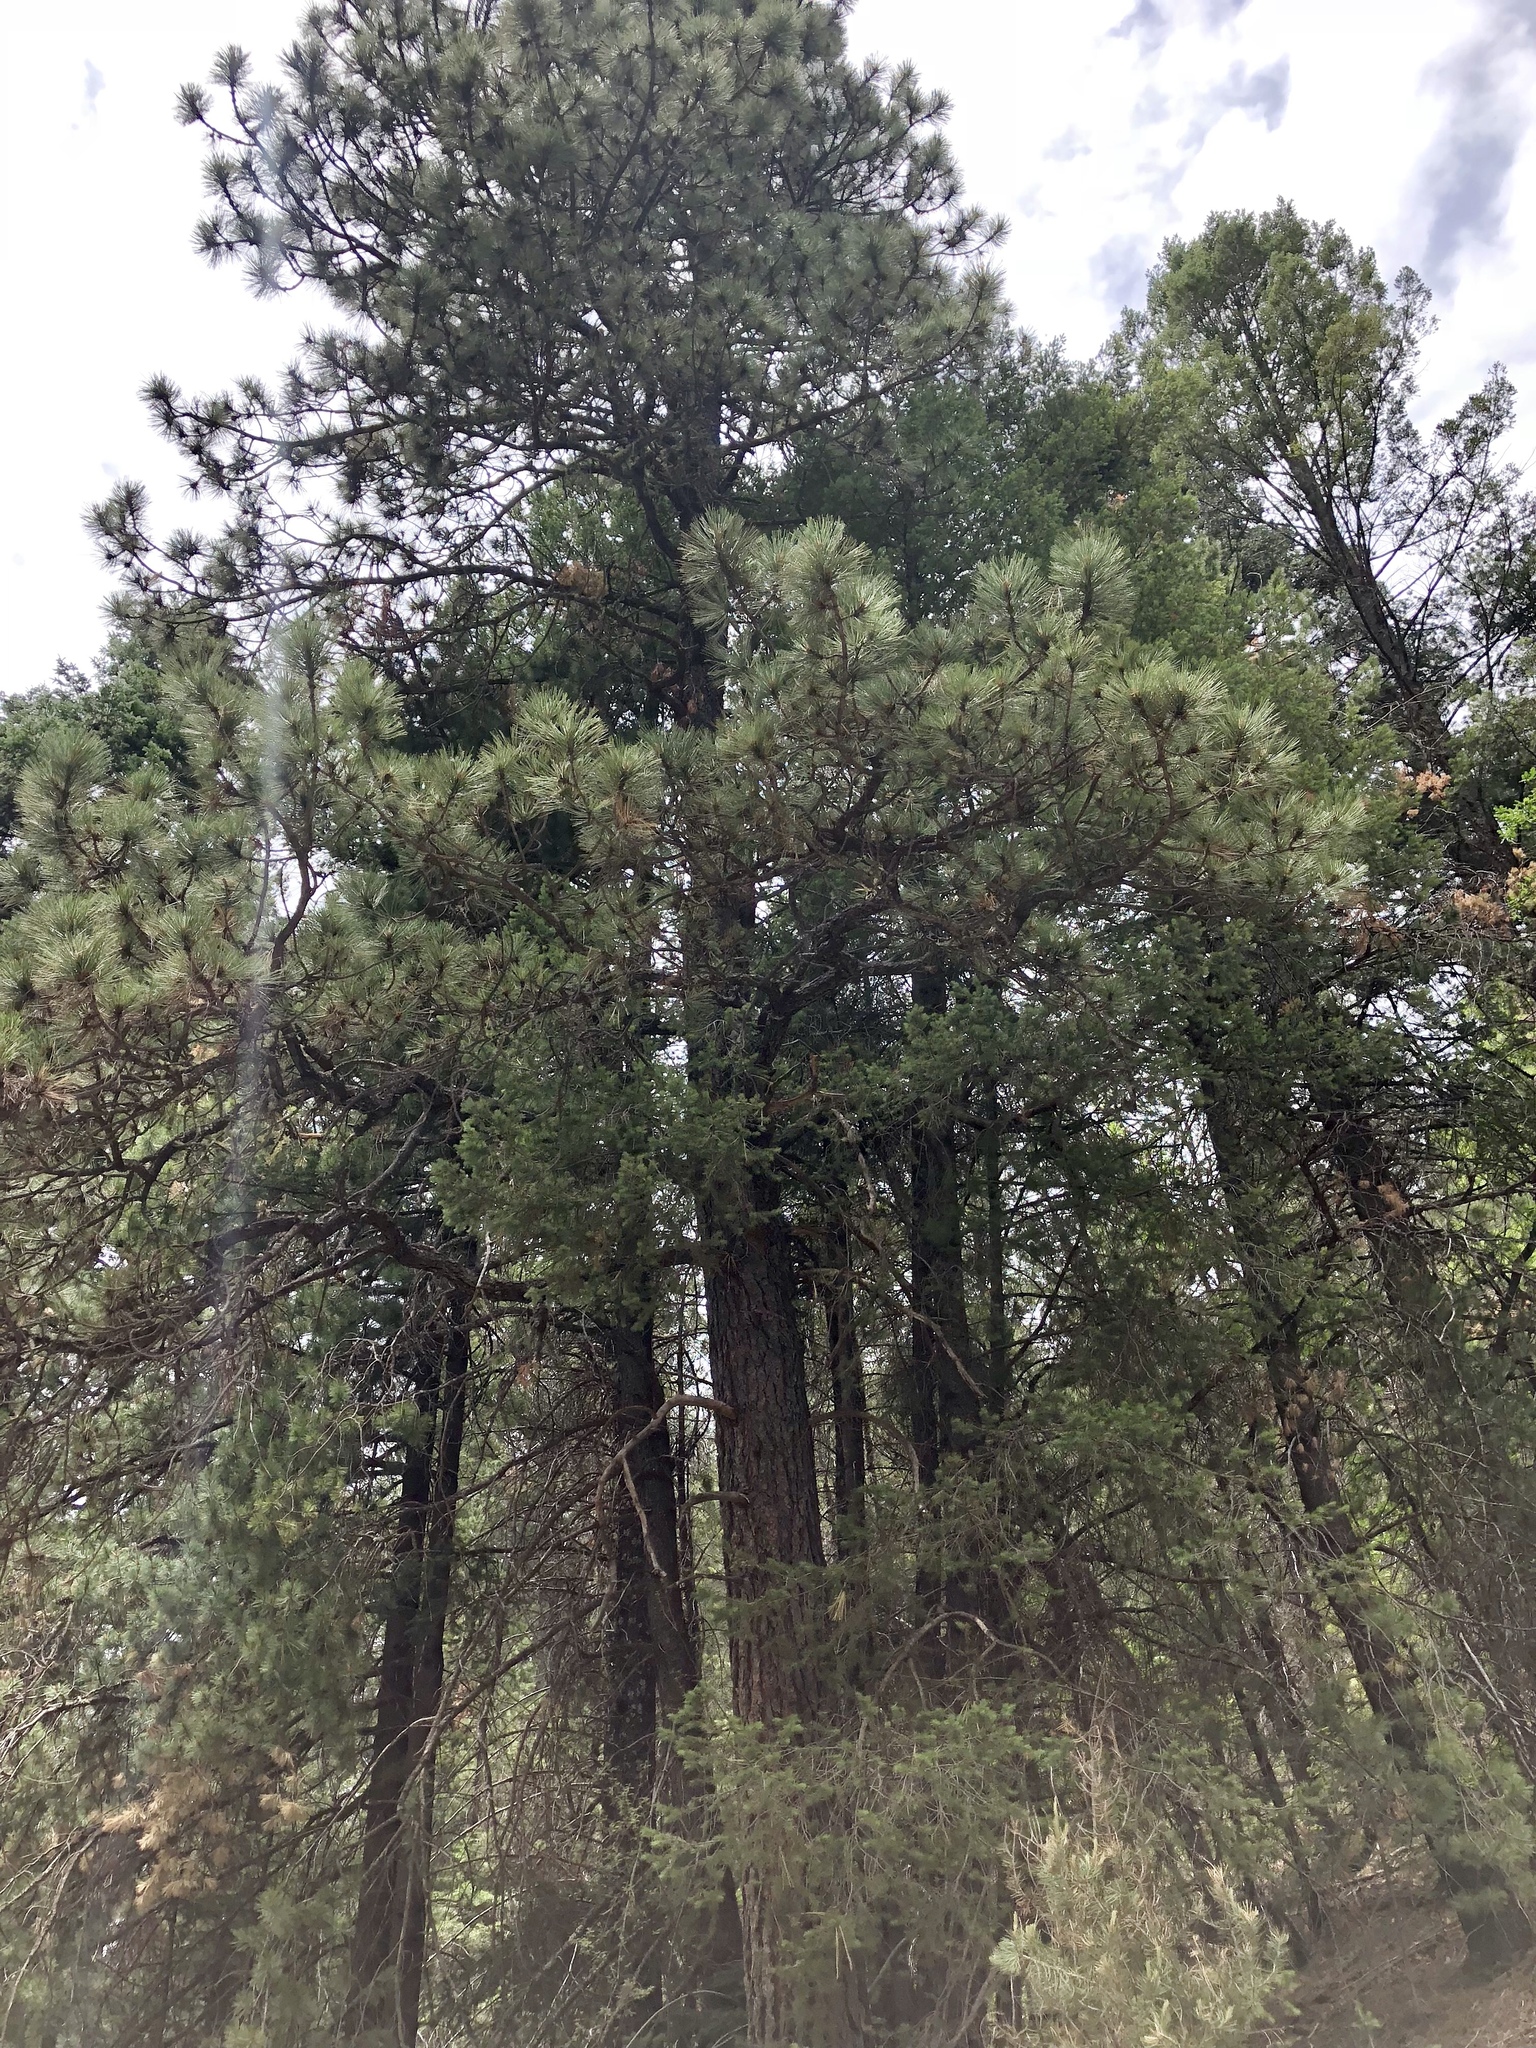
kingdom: Plantae
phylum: Tracheophyta
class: Pinopsida
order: Pinales
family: Pinaceae
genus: Pinus
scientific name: Pinus ponderosa
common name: Western yellow-pine
